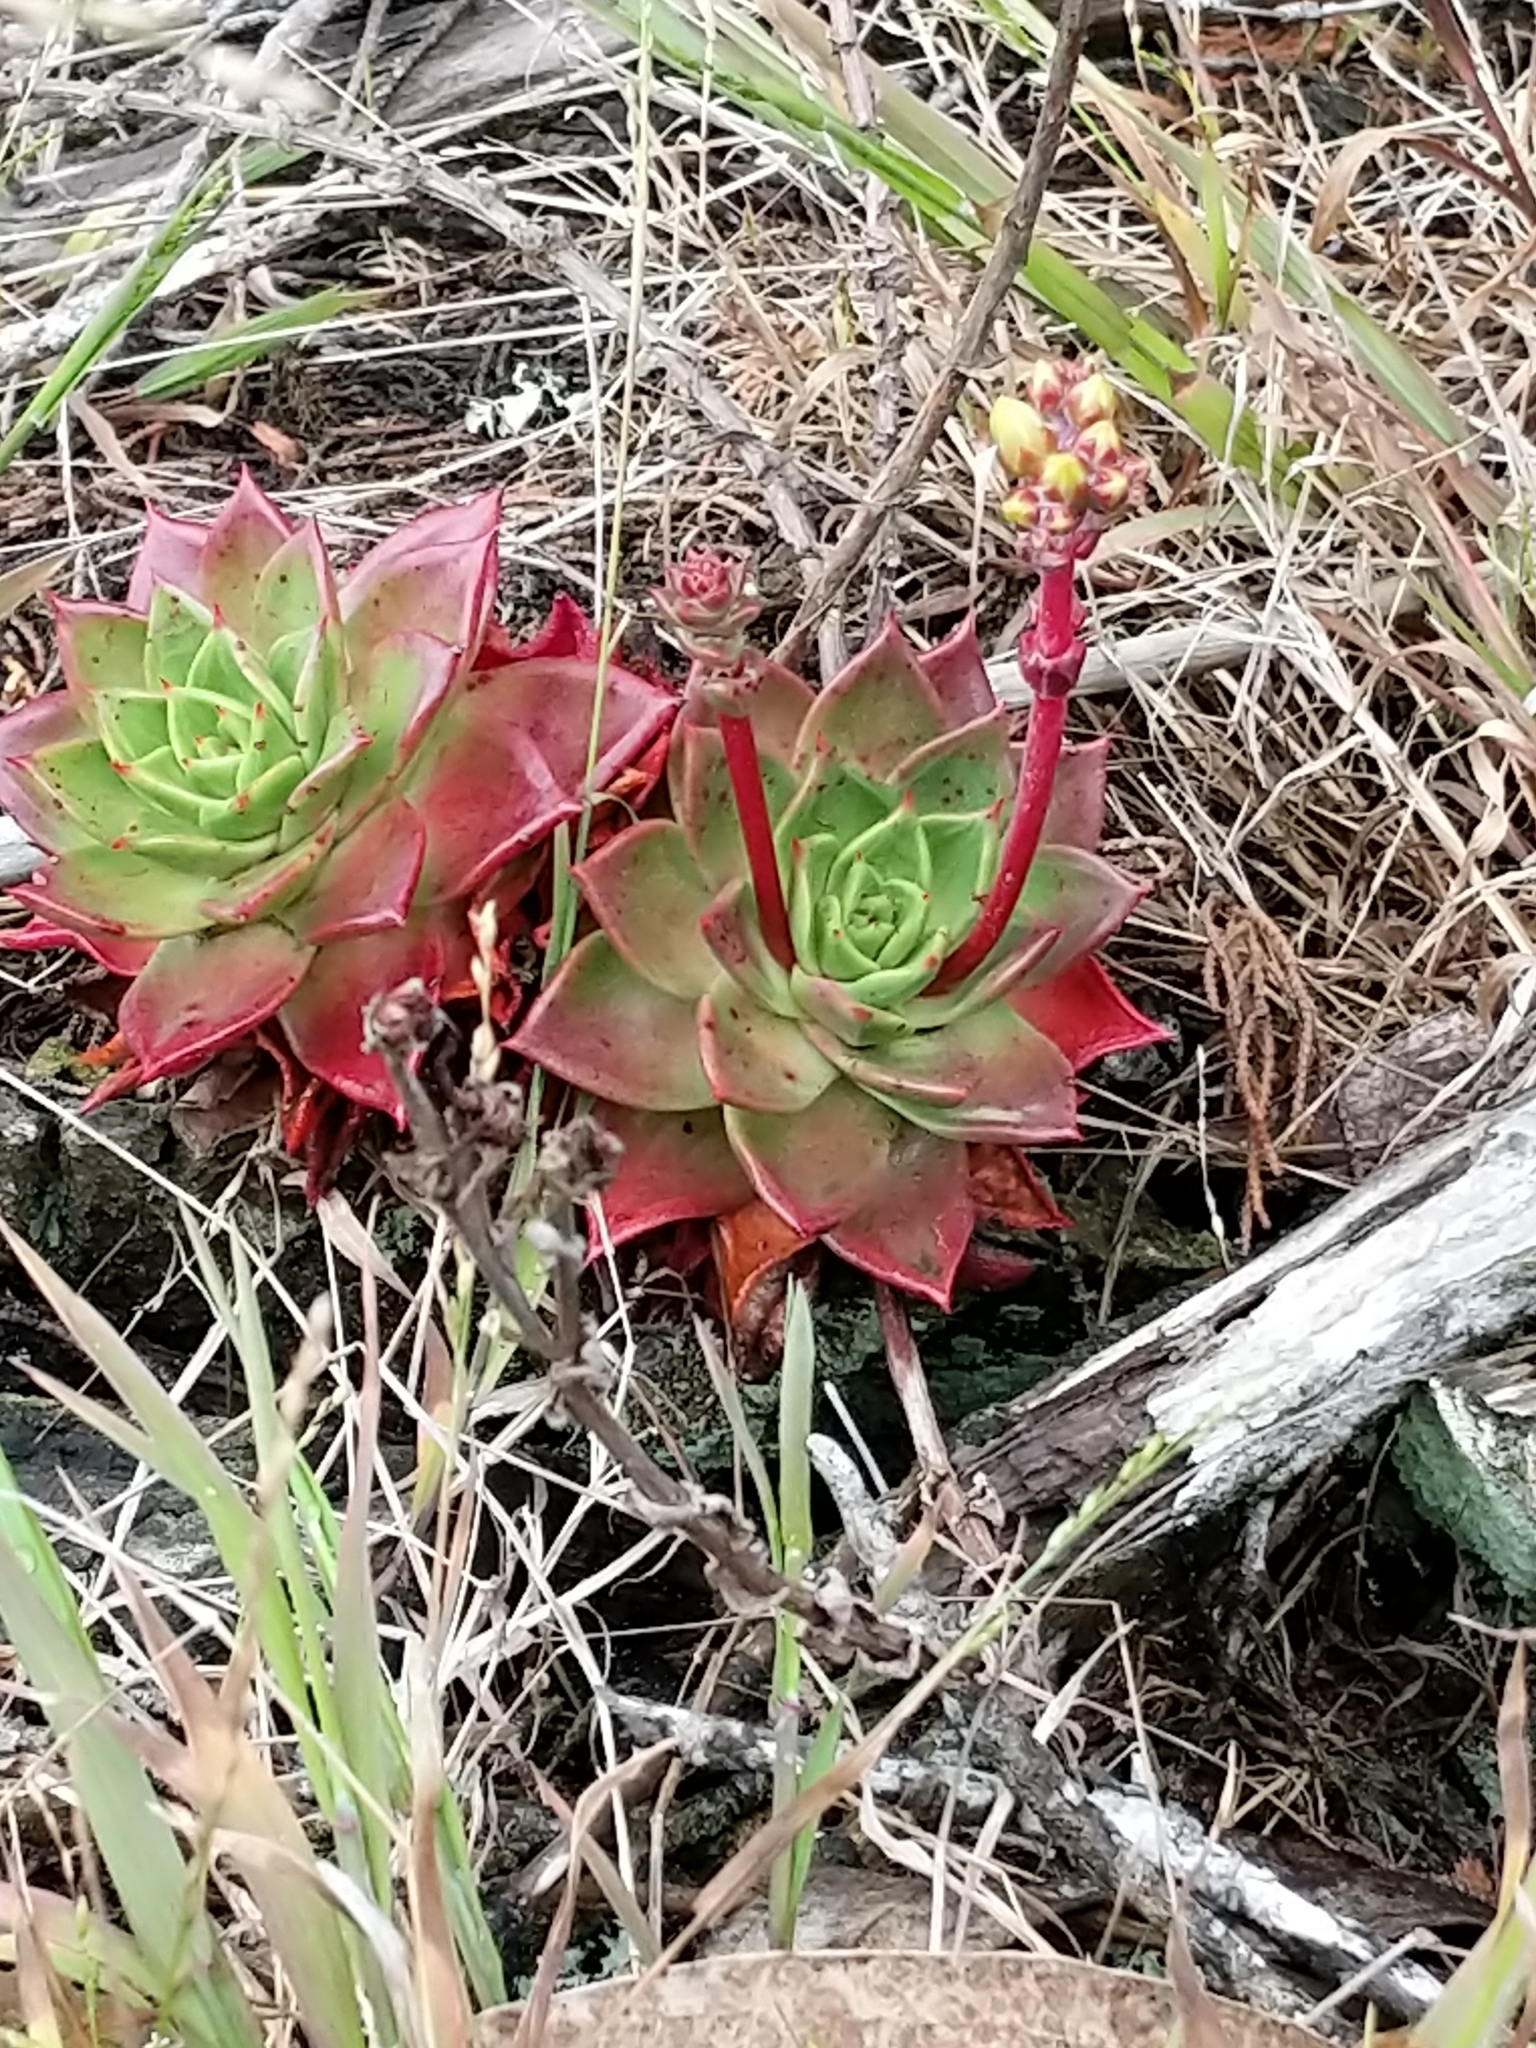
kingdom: Plantae
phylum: Tracheophyta
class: Magnoliopsida
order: Saxifragales
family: Crassulaceae
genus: Dudleya
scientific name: Dudleya farinosa
